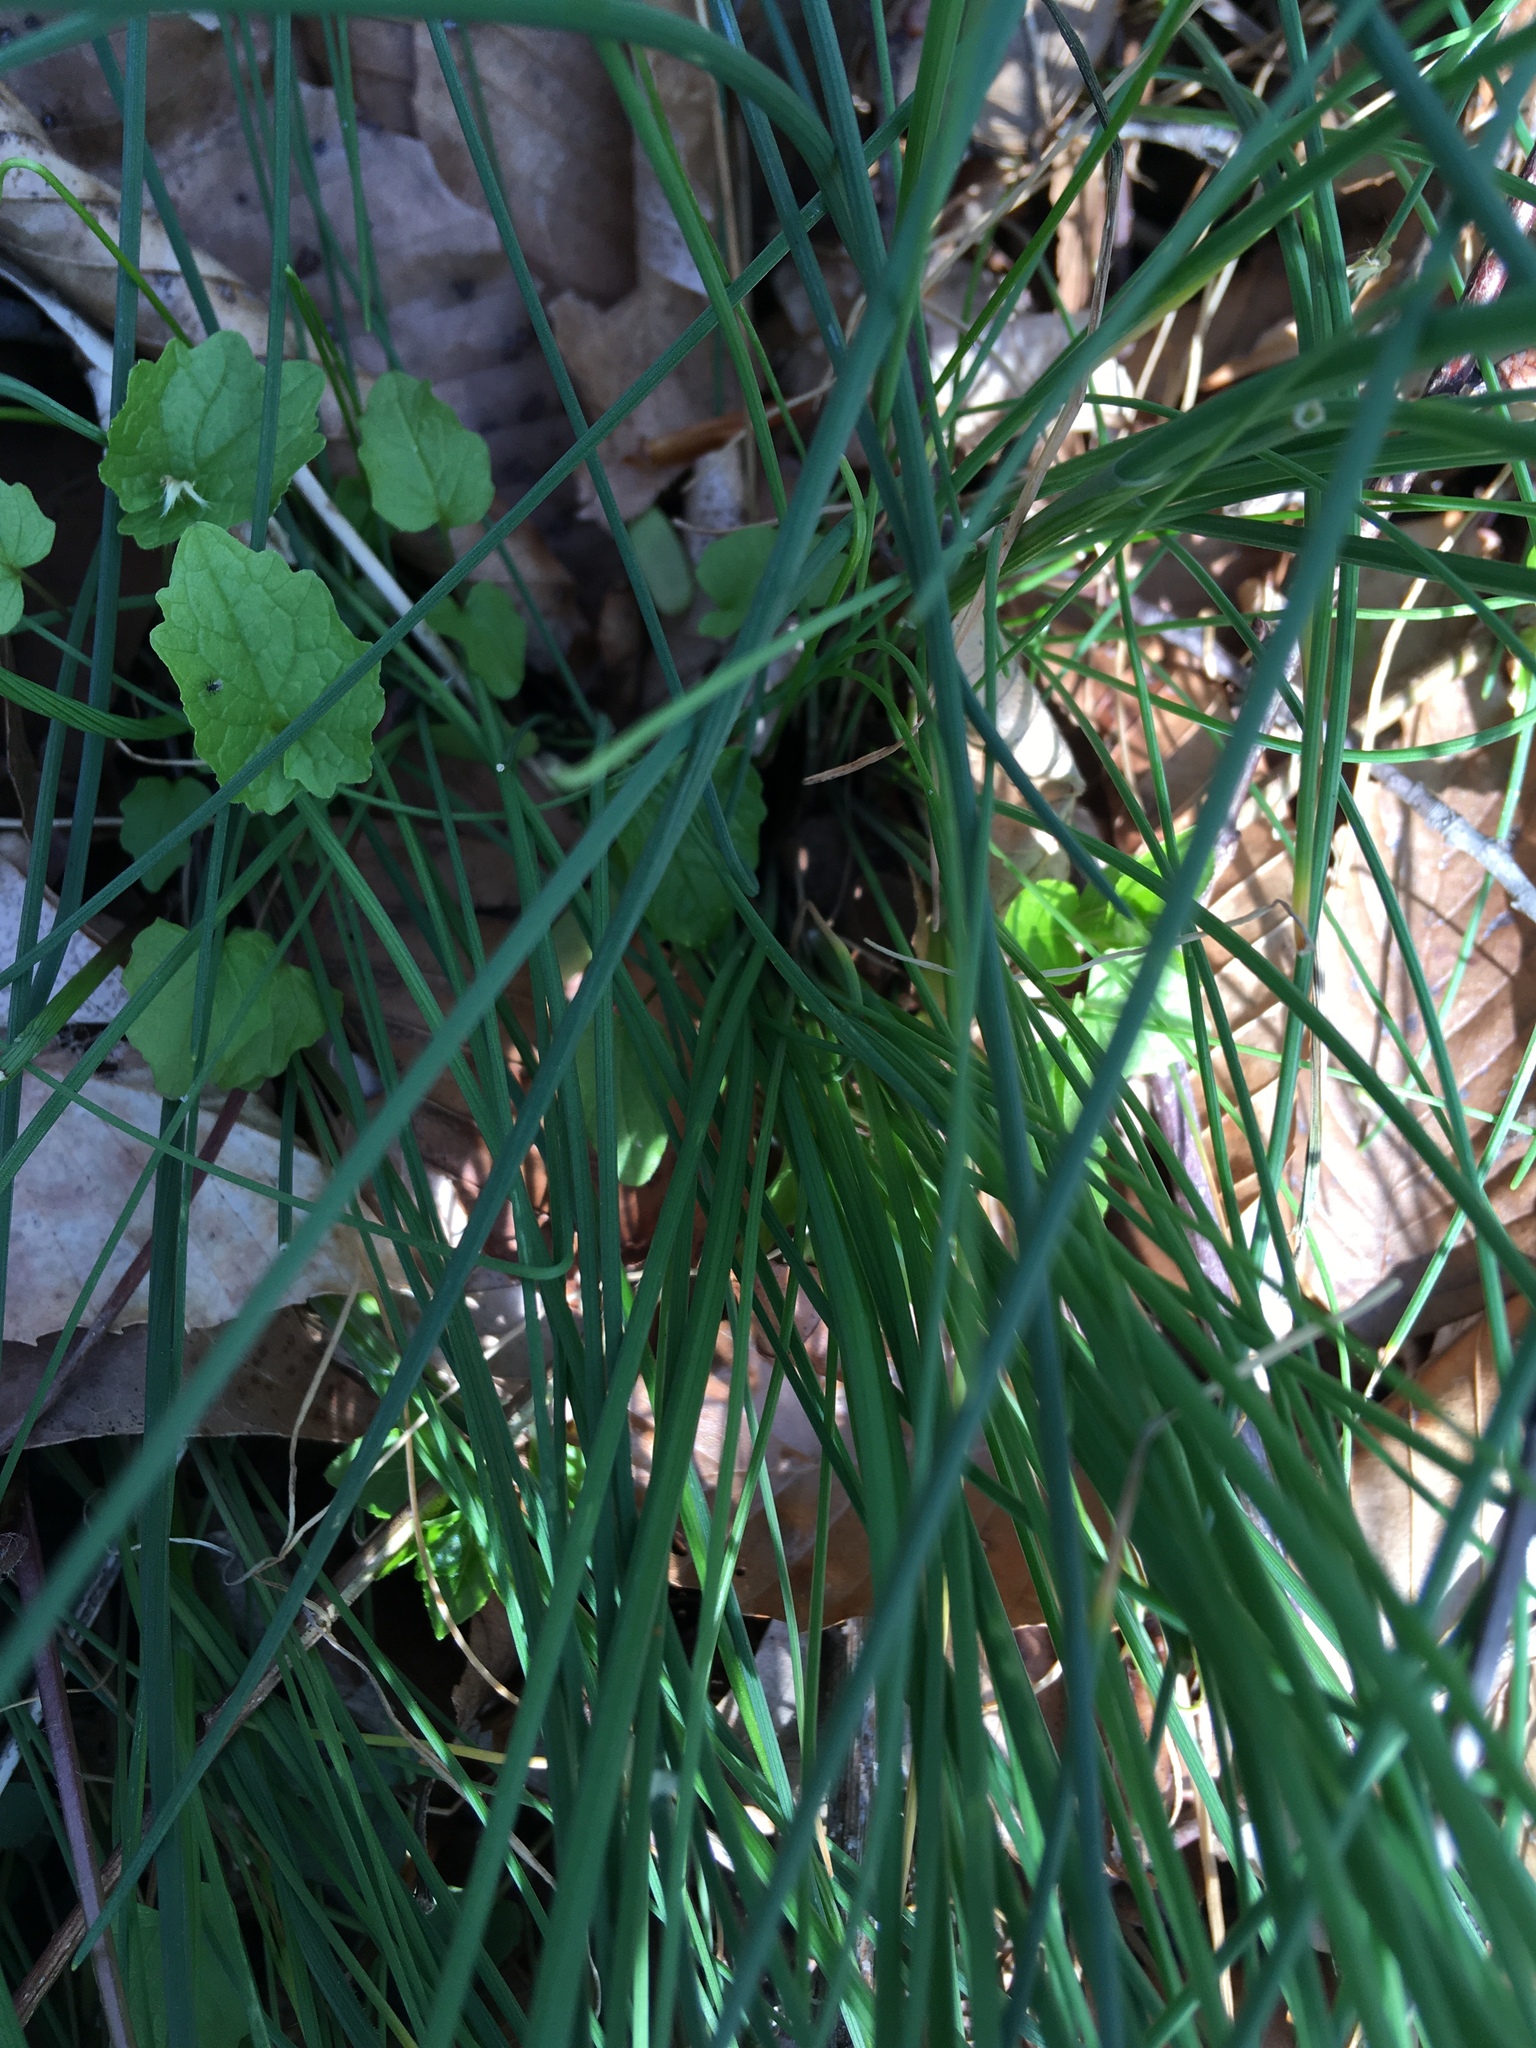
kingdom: Plantae
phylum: Tracheophyta
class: Liliopsida
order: Asparagales
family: Amaryllidaceae
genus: Allium
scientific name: Allium vineale
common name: Crow garlic
